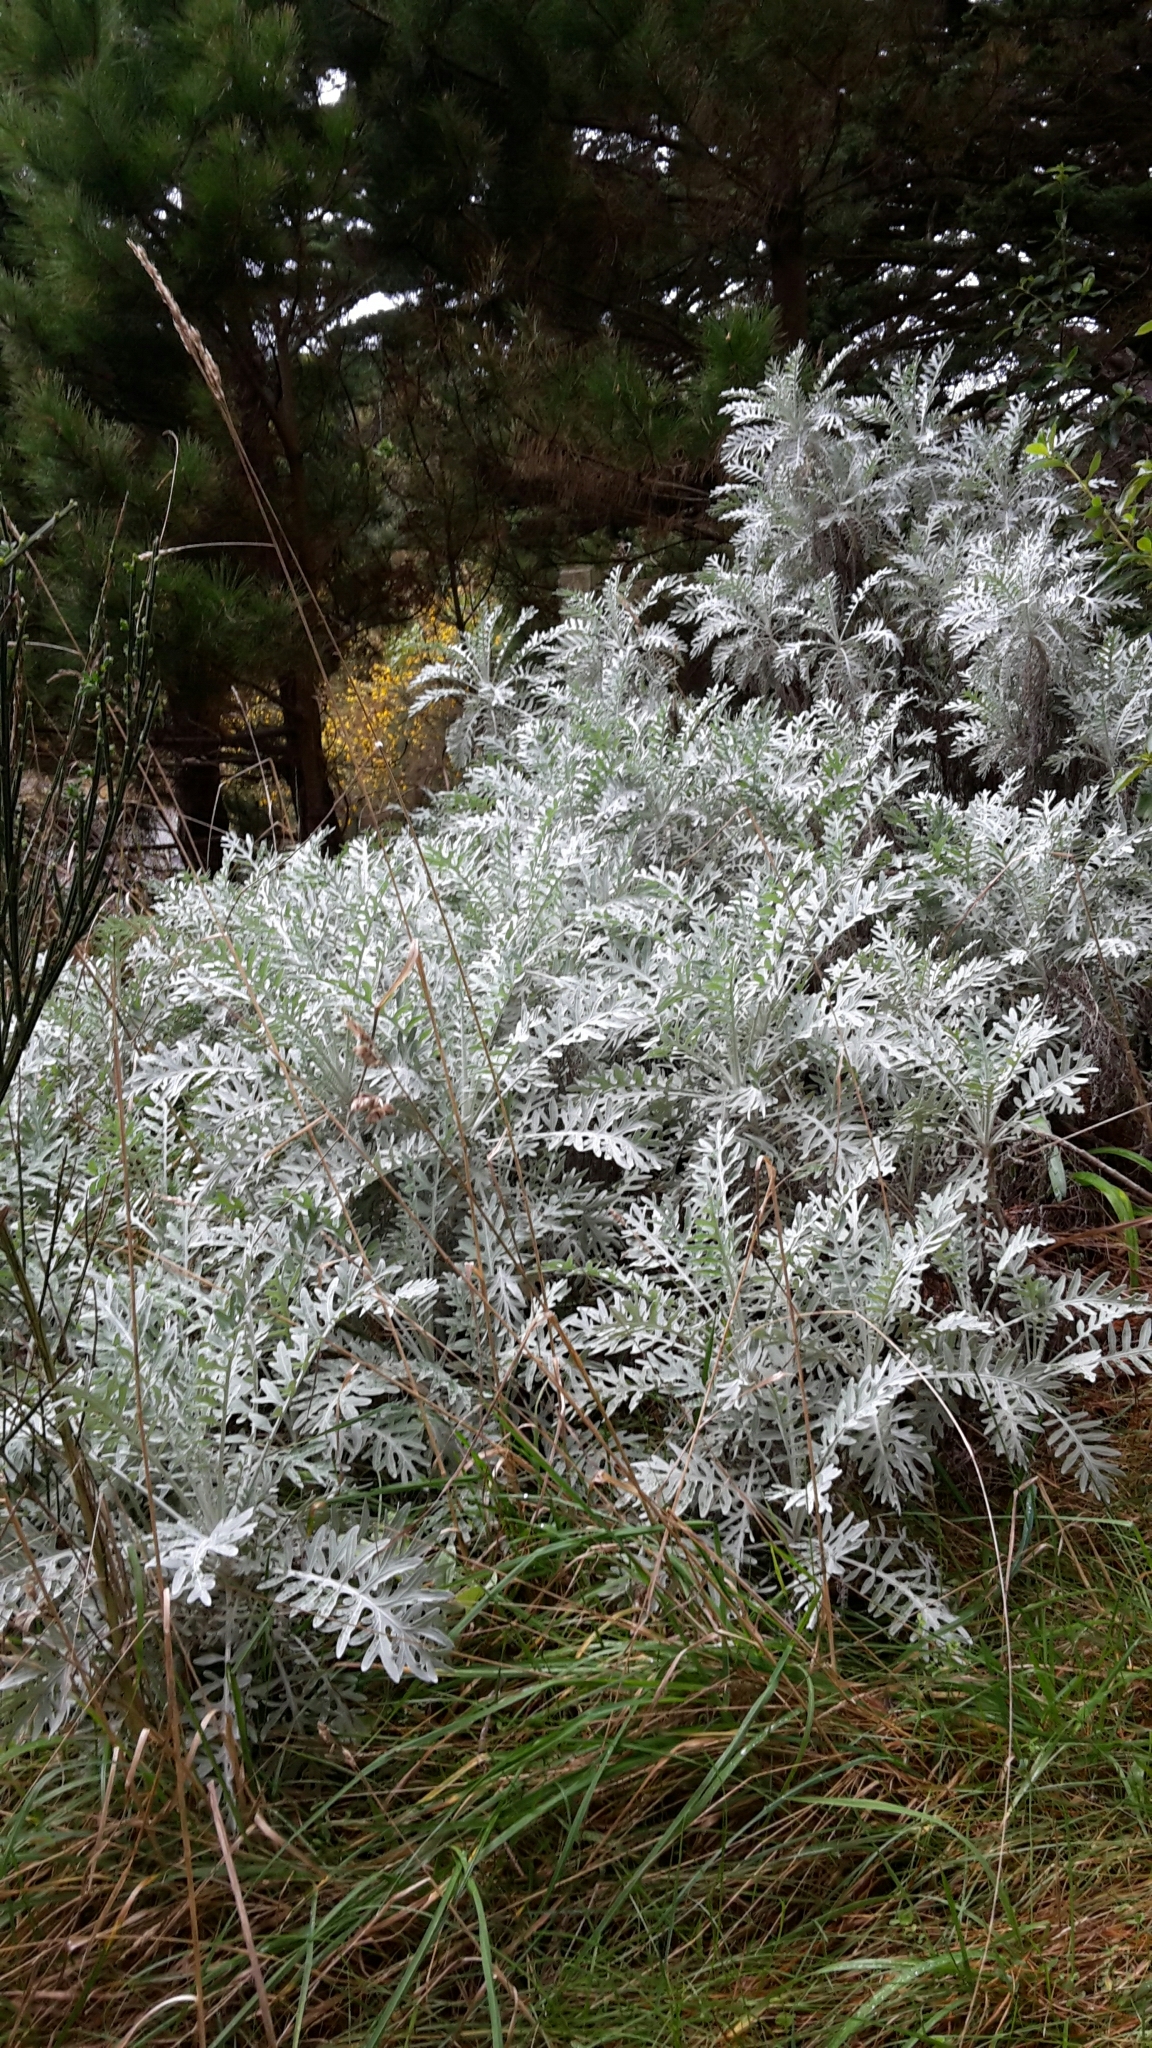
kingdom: Plantae
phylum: Tracheophyta
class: Magnoliopsida
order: Asterales
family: Asteraceae
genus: Jacobaea
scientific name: Jacobaea maritima
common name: Silver ragwort
